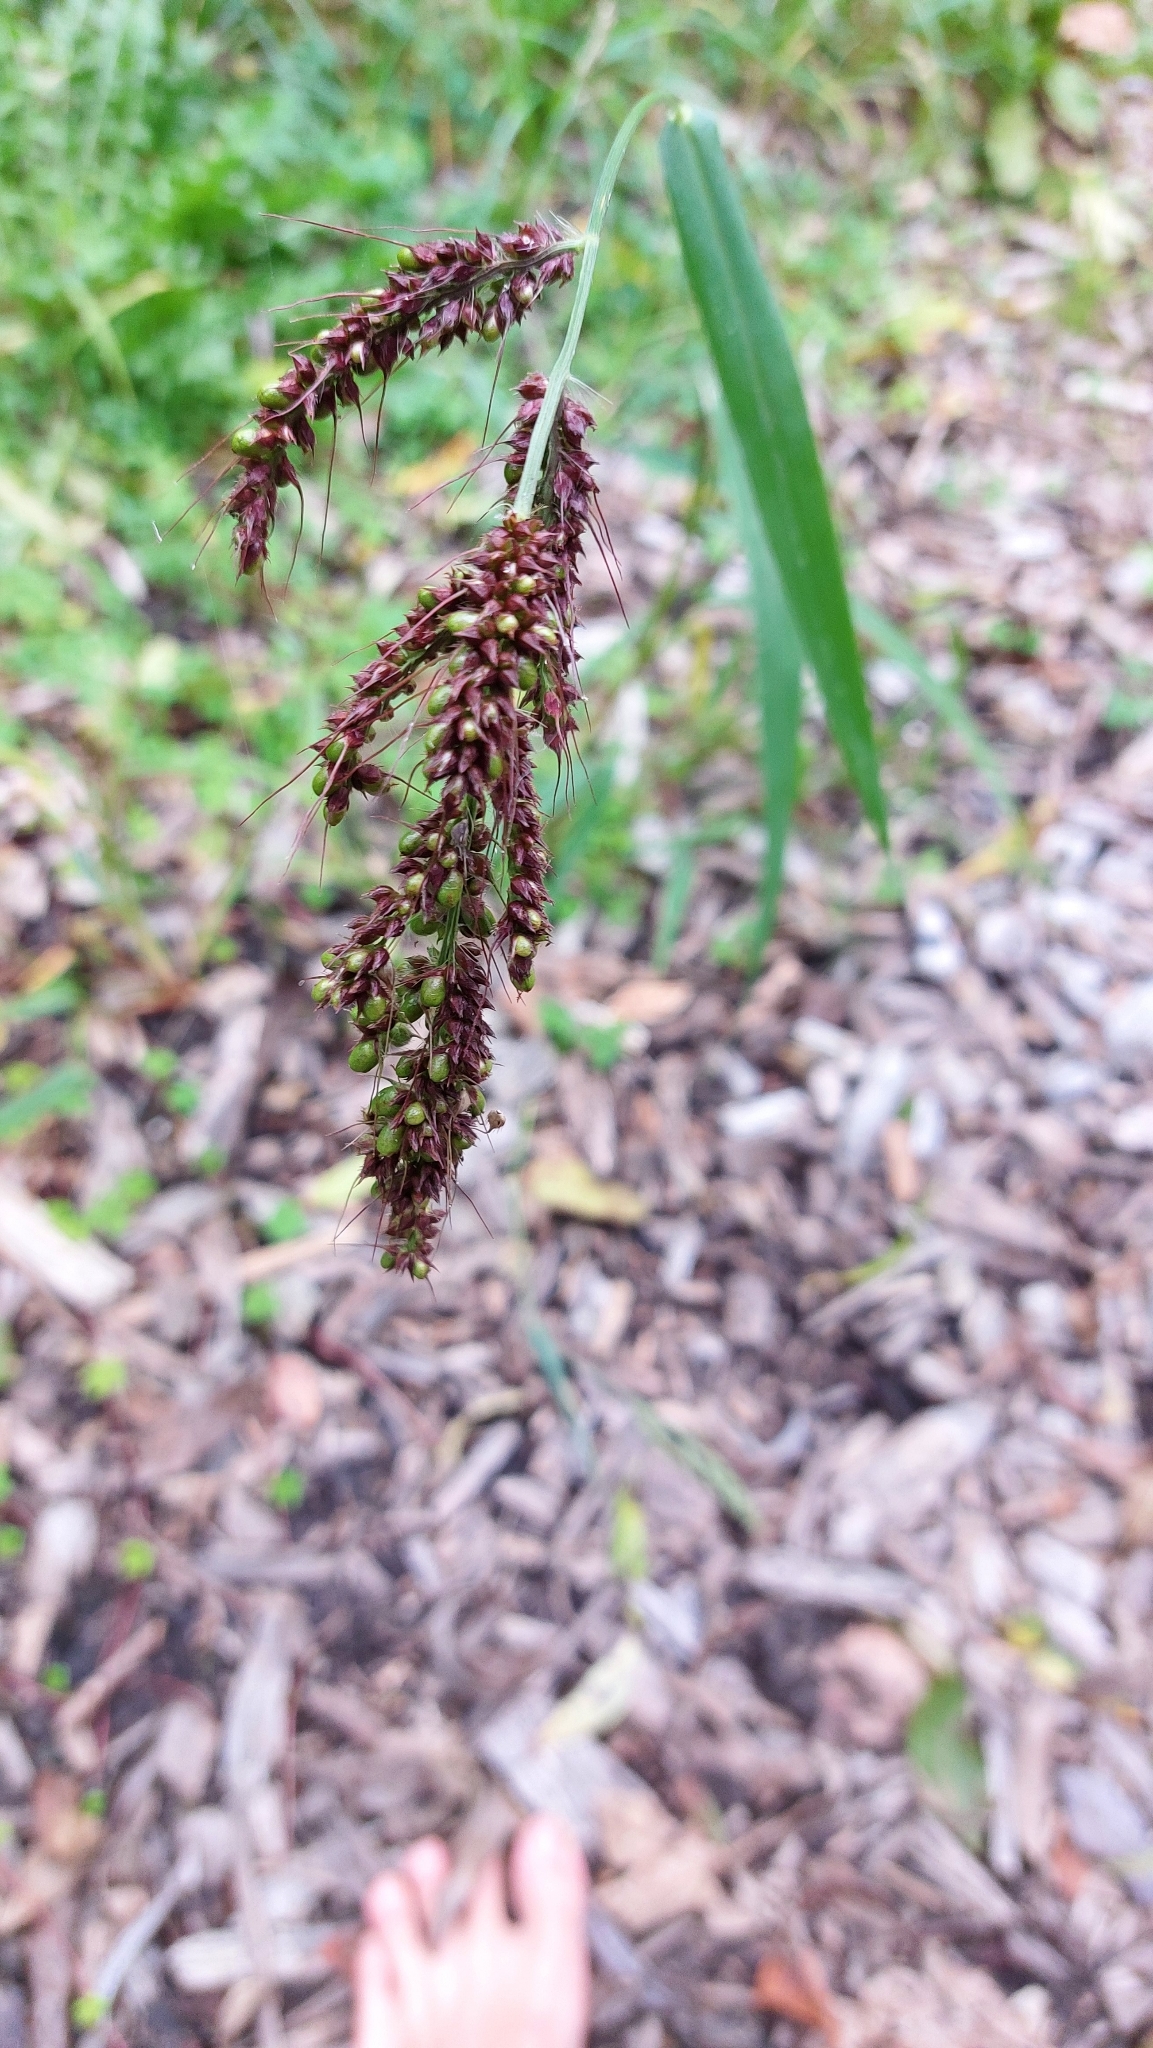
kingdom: Plantae
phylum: Tracheophyta
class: Liliopsida
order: Poales
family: Poaceae
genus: Echinochloa
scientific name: Echinochloa crus-galli
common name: Cockspur
